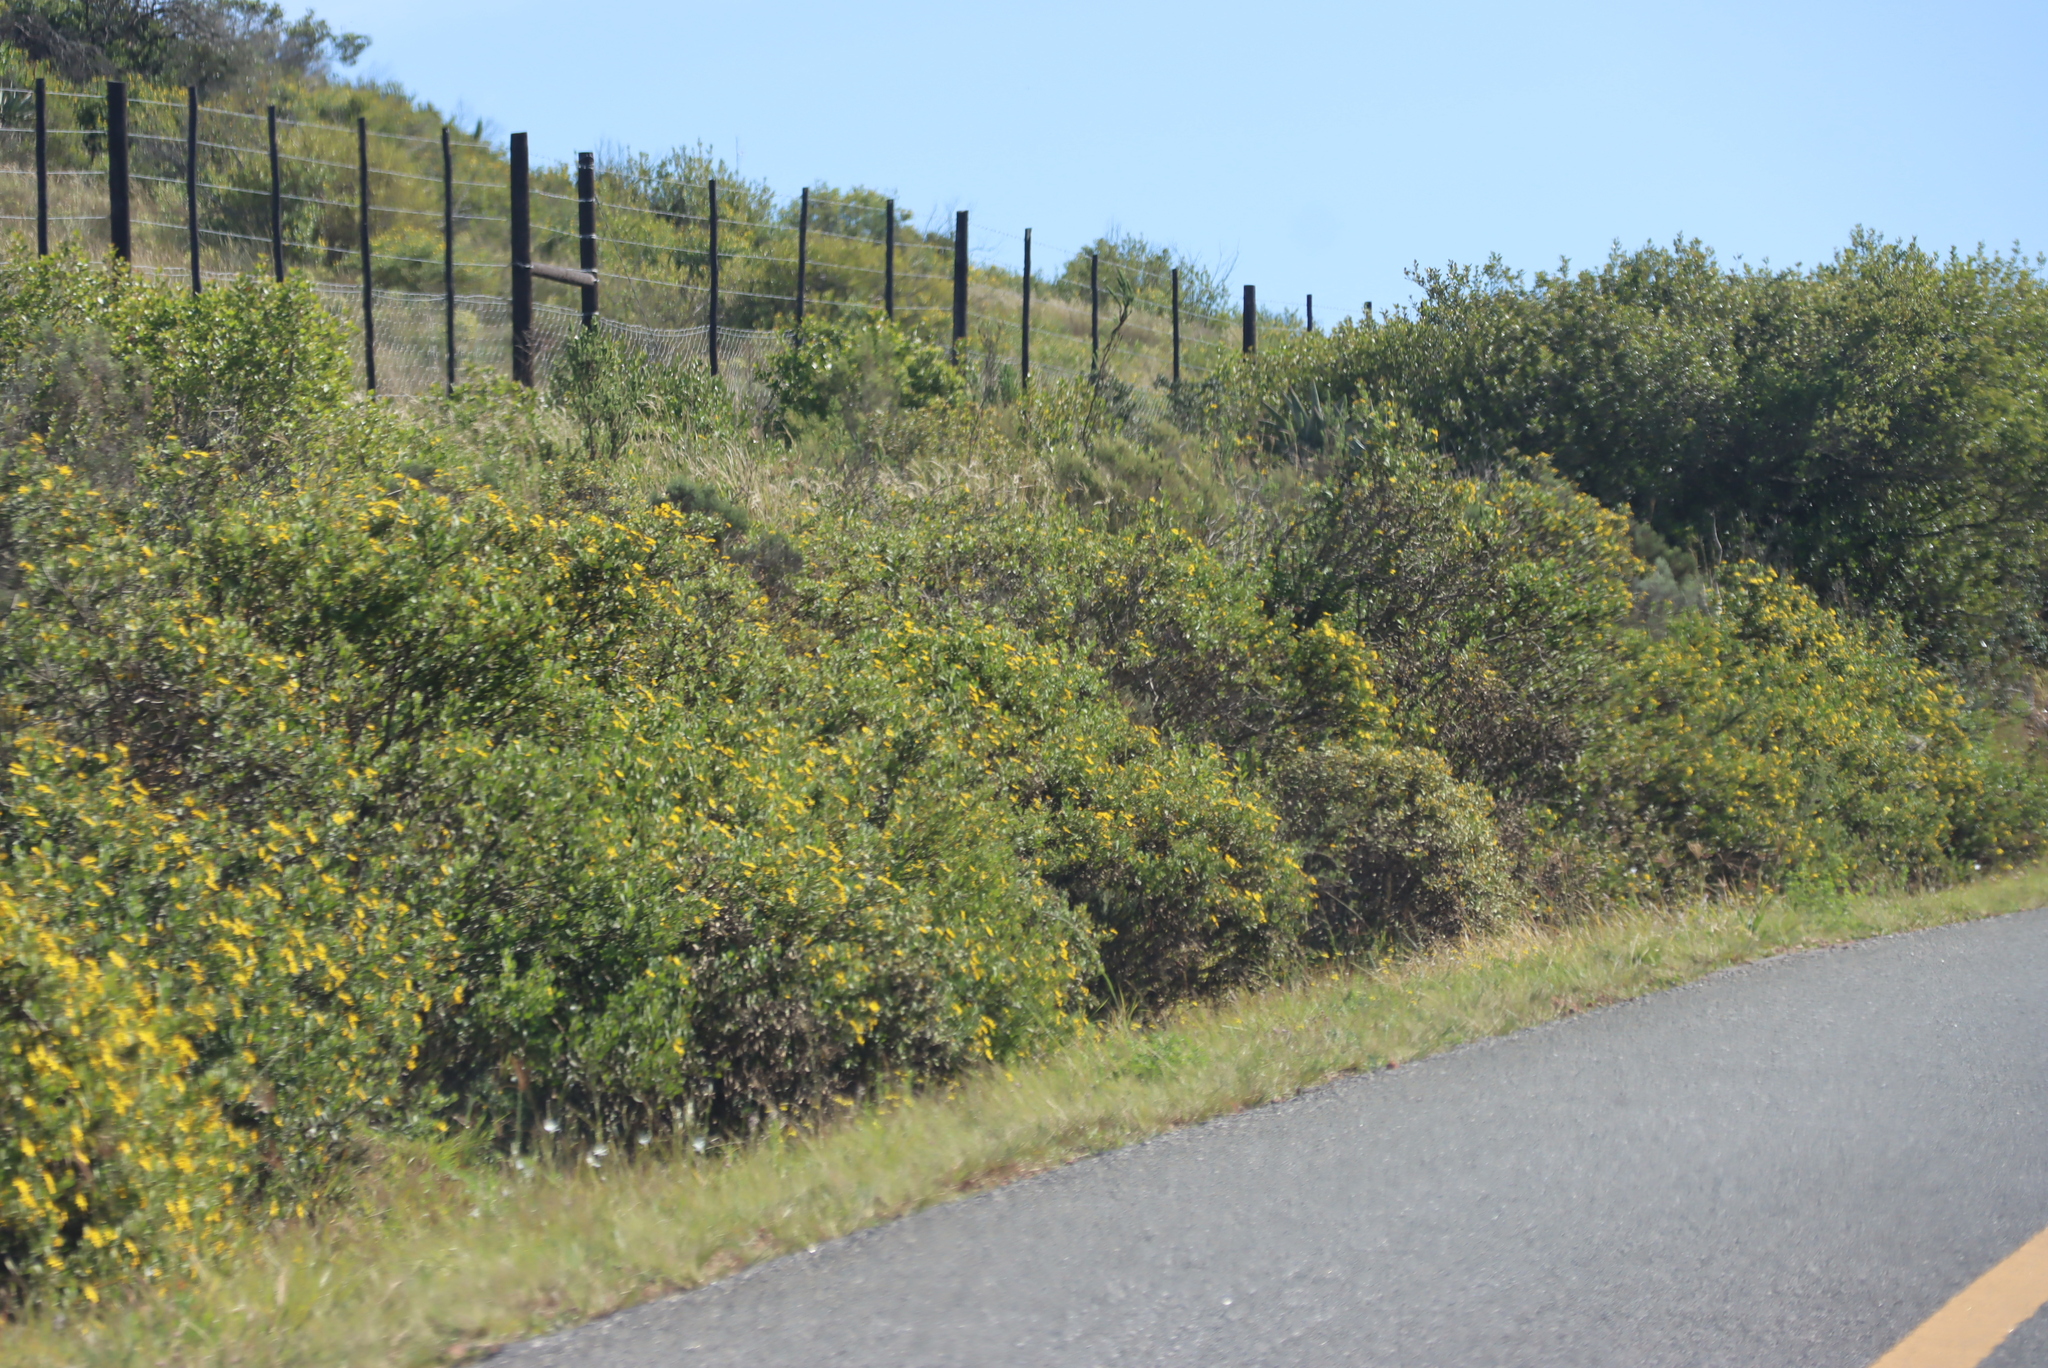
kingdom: Plantae
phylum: Tracheophyta
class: Magnoliopsida
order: Asterales
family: Asteraceae
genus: Osteospermum
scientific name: Osteospermum moniliferum
